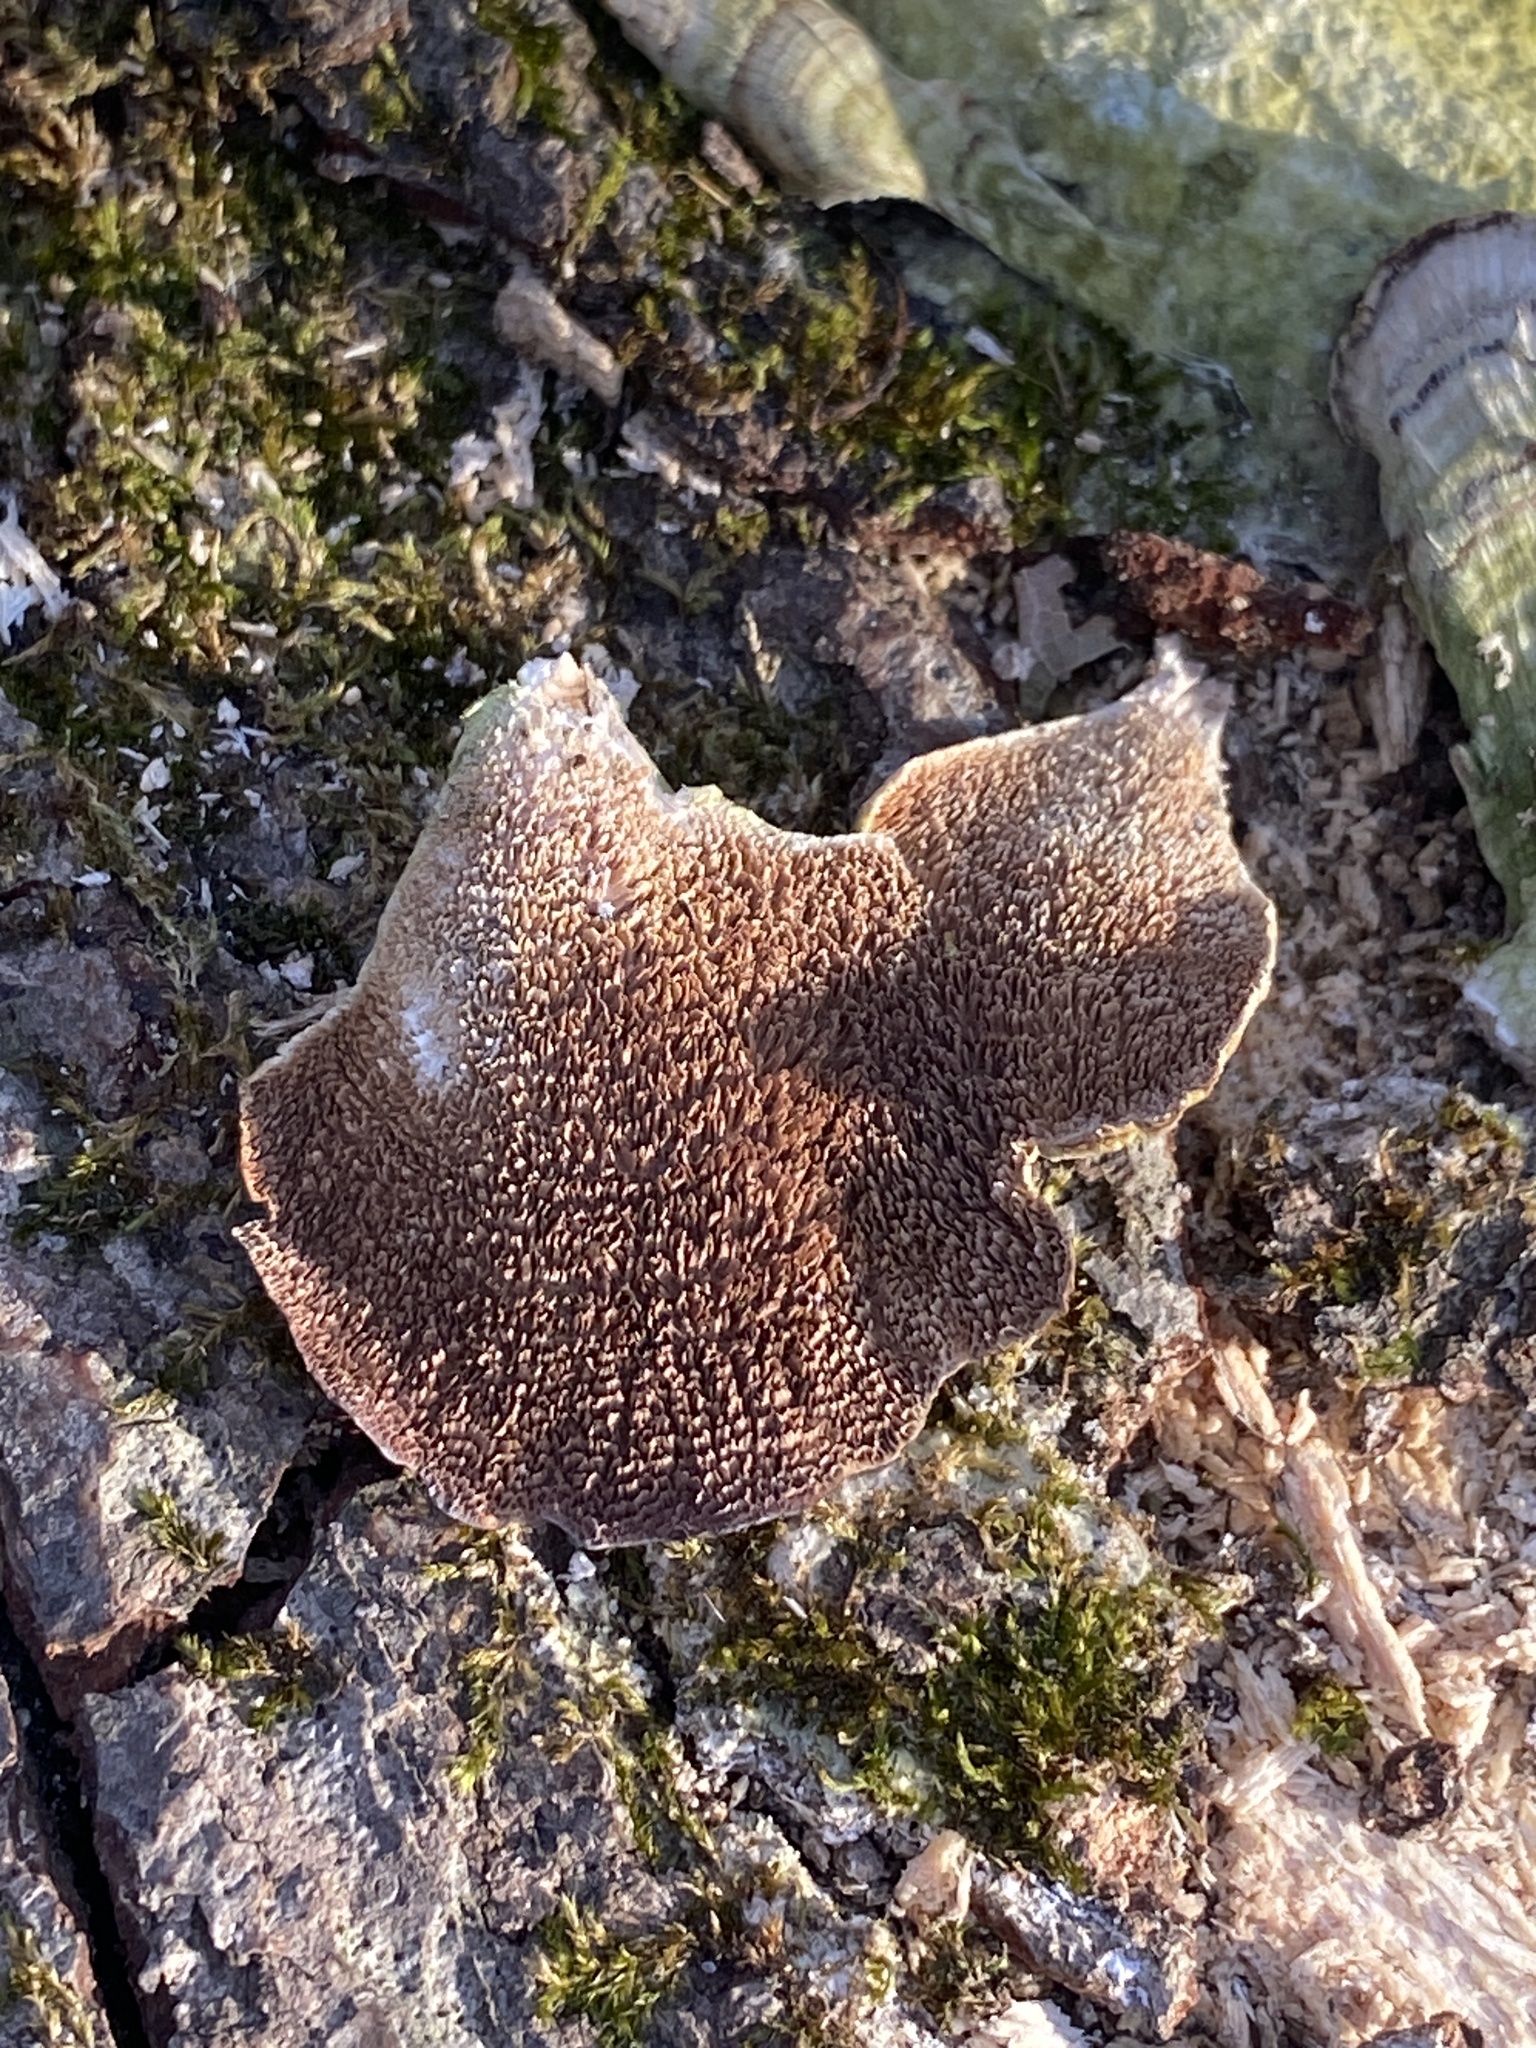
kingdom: Fungi
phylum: Basidiomycota
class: Agaricomycetes
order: Hymenochaetales
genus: Trichaptum
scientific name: Trichaptum biforme
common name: Violet-toothed polypore
